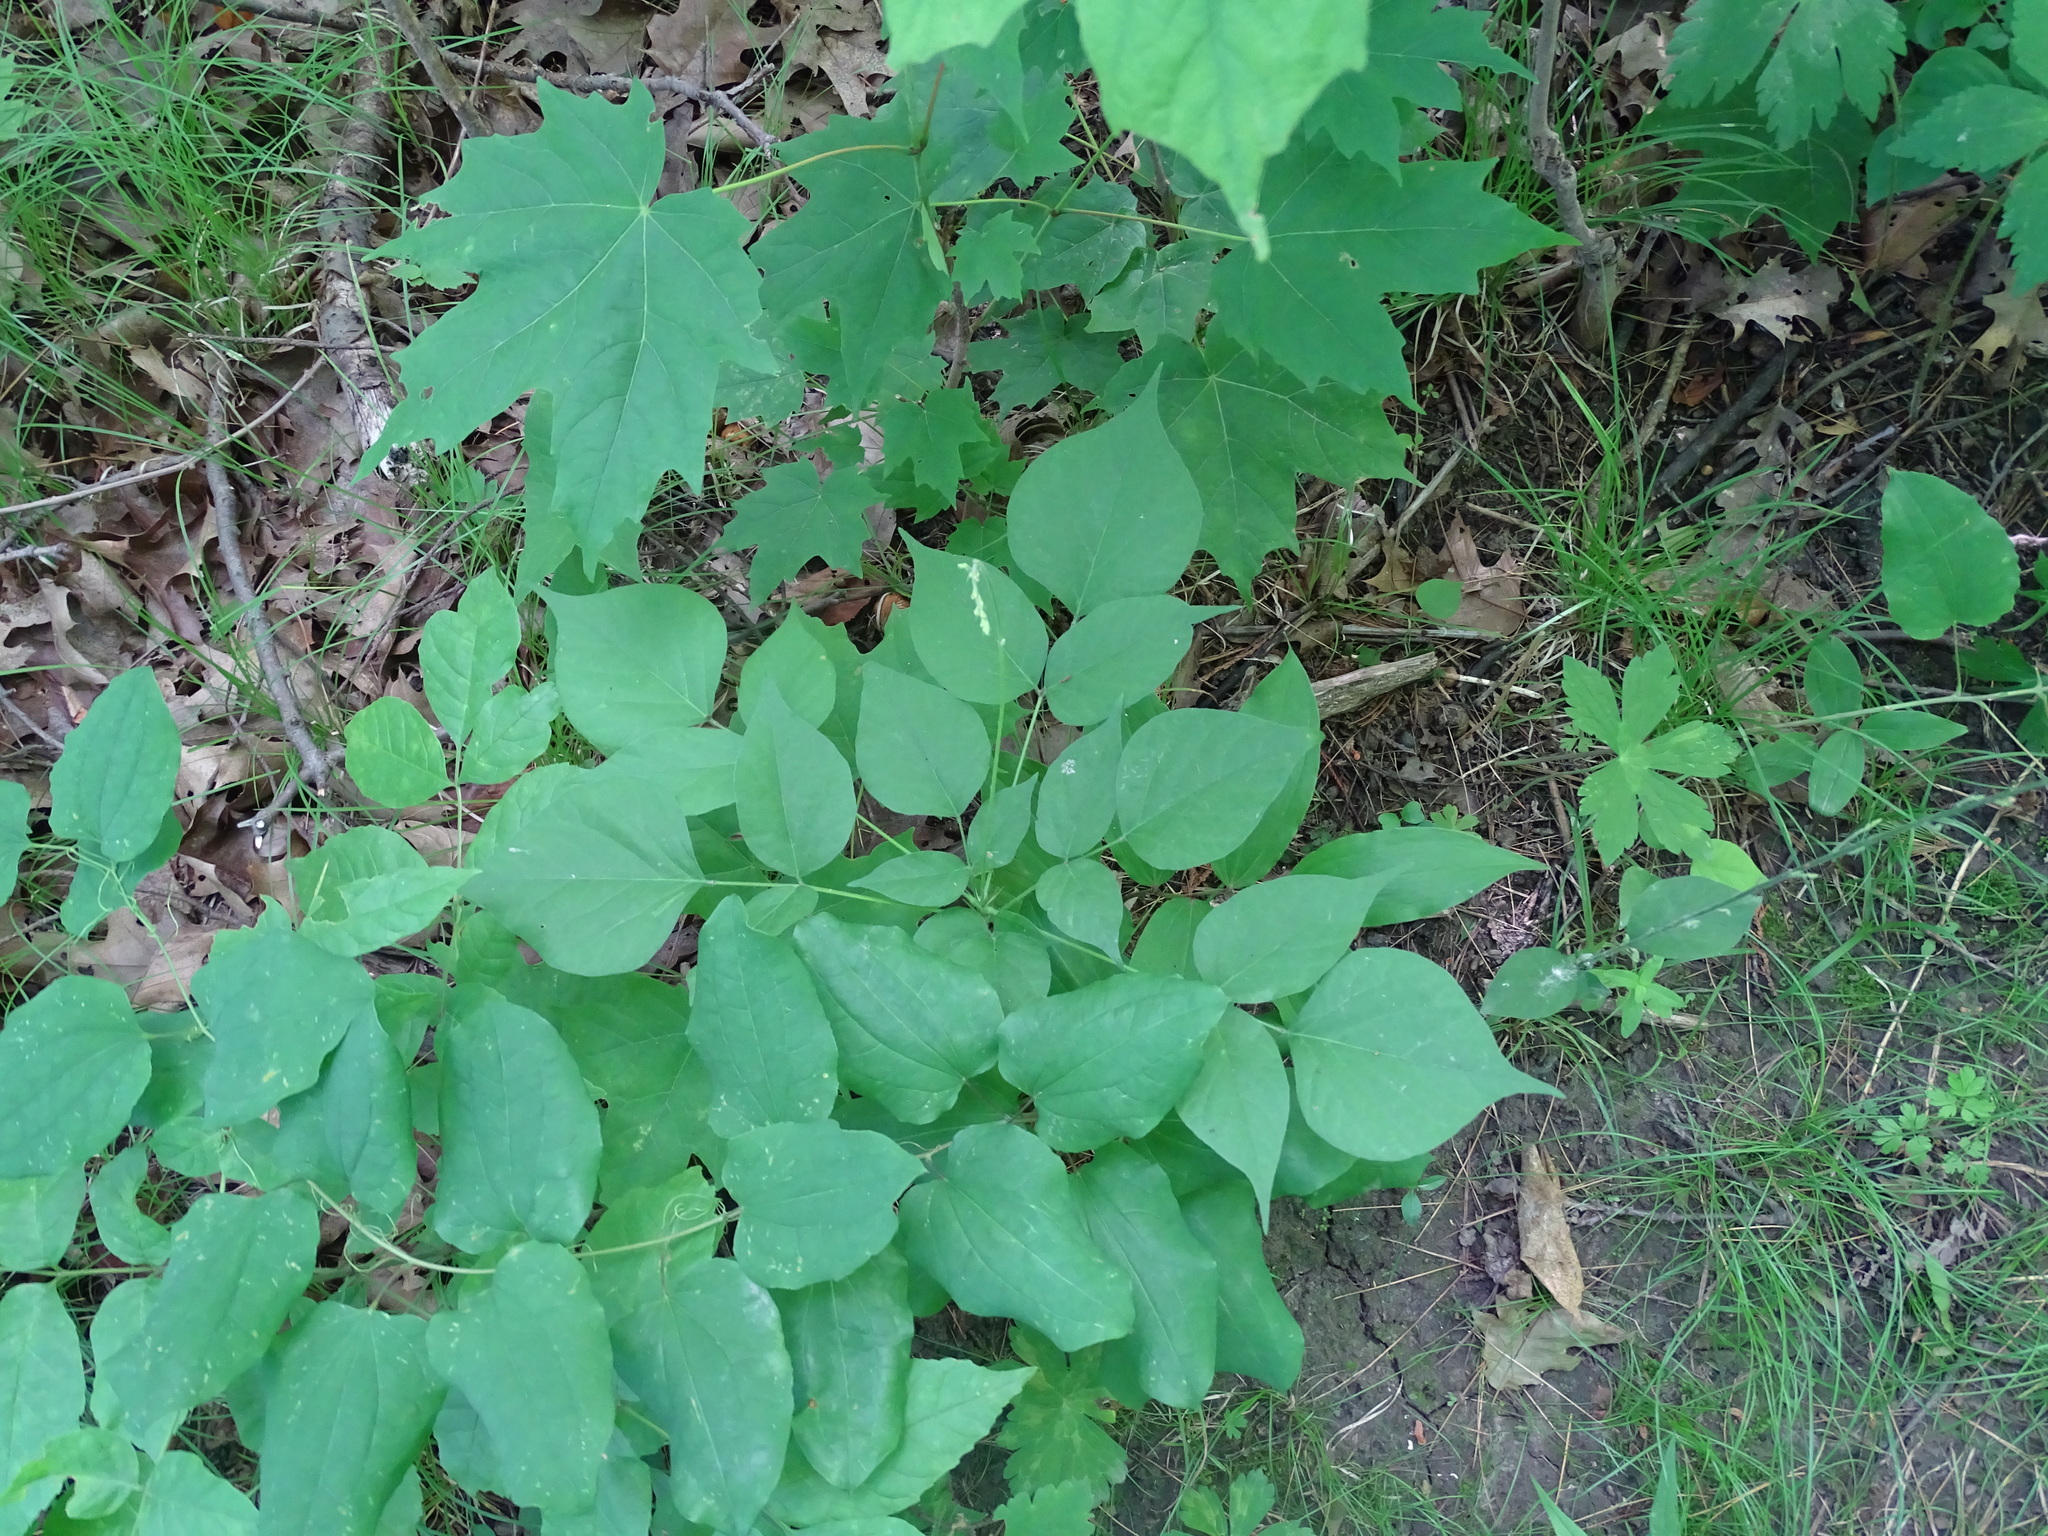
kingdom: Plantae
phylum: Tracheophyta
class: Magnoliopsida
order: Fabales
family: Fabaceae
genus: Hylodesmum
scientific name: Hylodesmum glutinosum
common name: Clustered-leaved tick-trefoil
